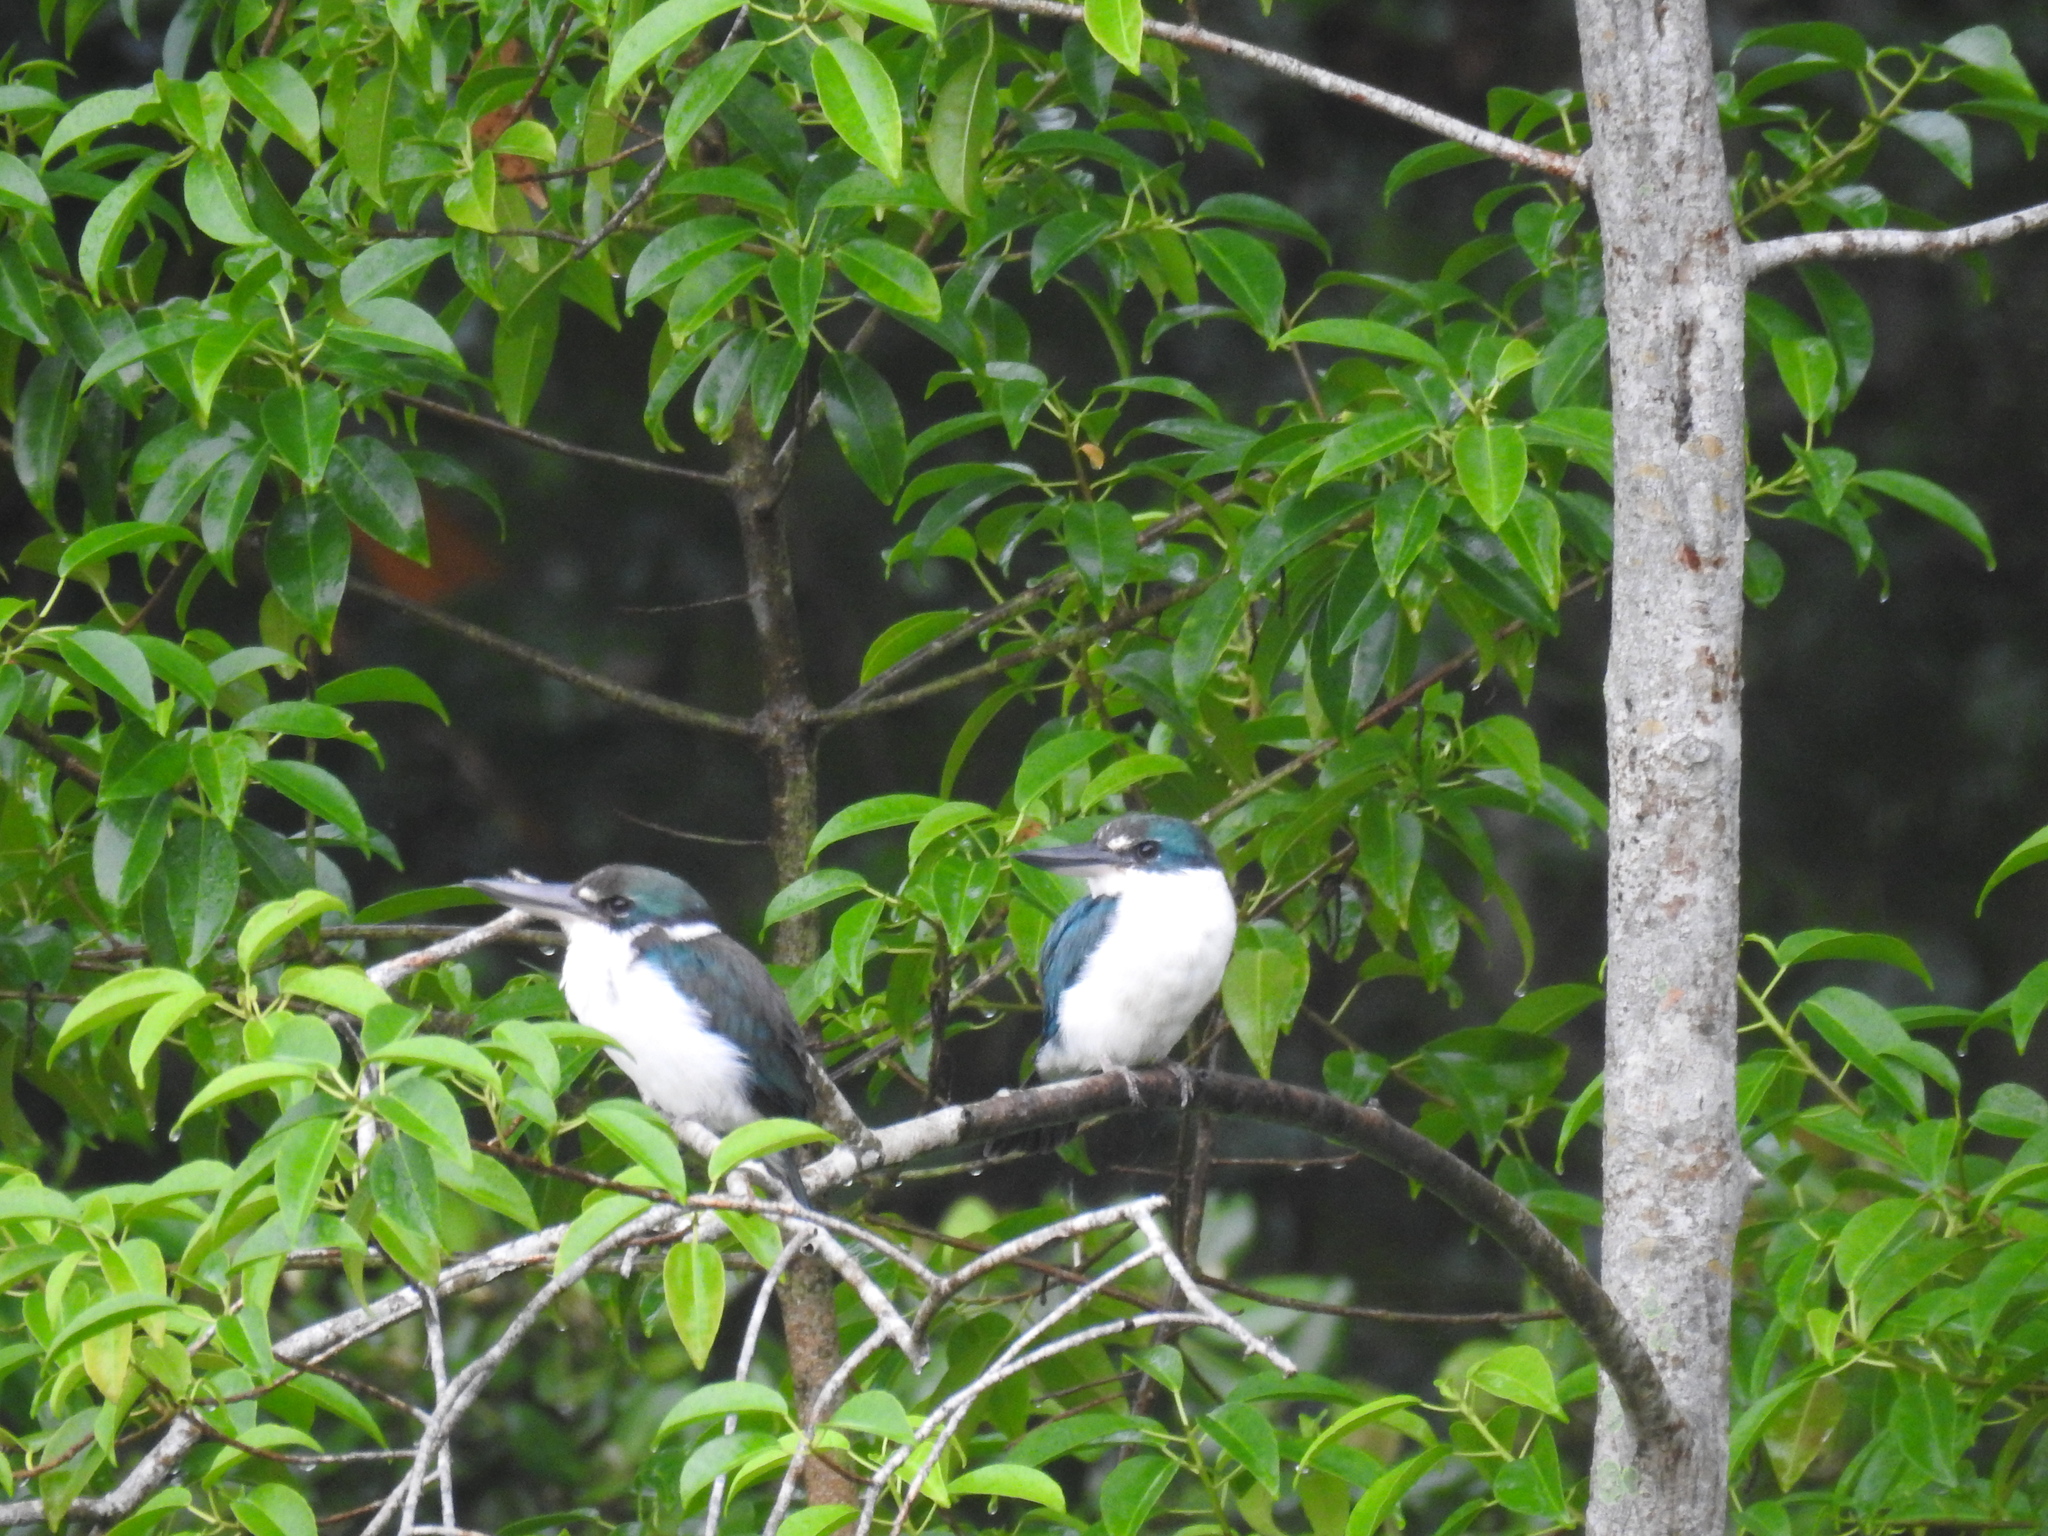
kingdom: Animalia
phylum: Chordata
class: Aves
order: Coraciiformes
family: Alcedinidae
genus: Todiramphus
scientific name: Todiramphus chloris
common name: Collared kingfisher
